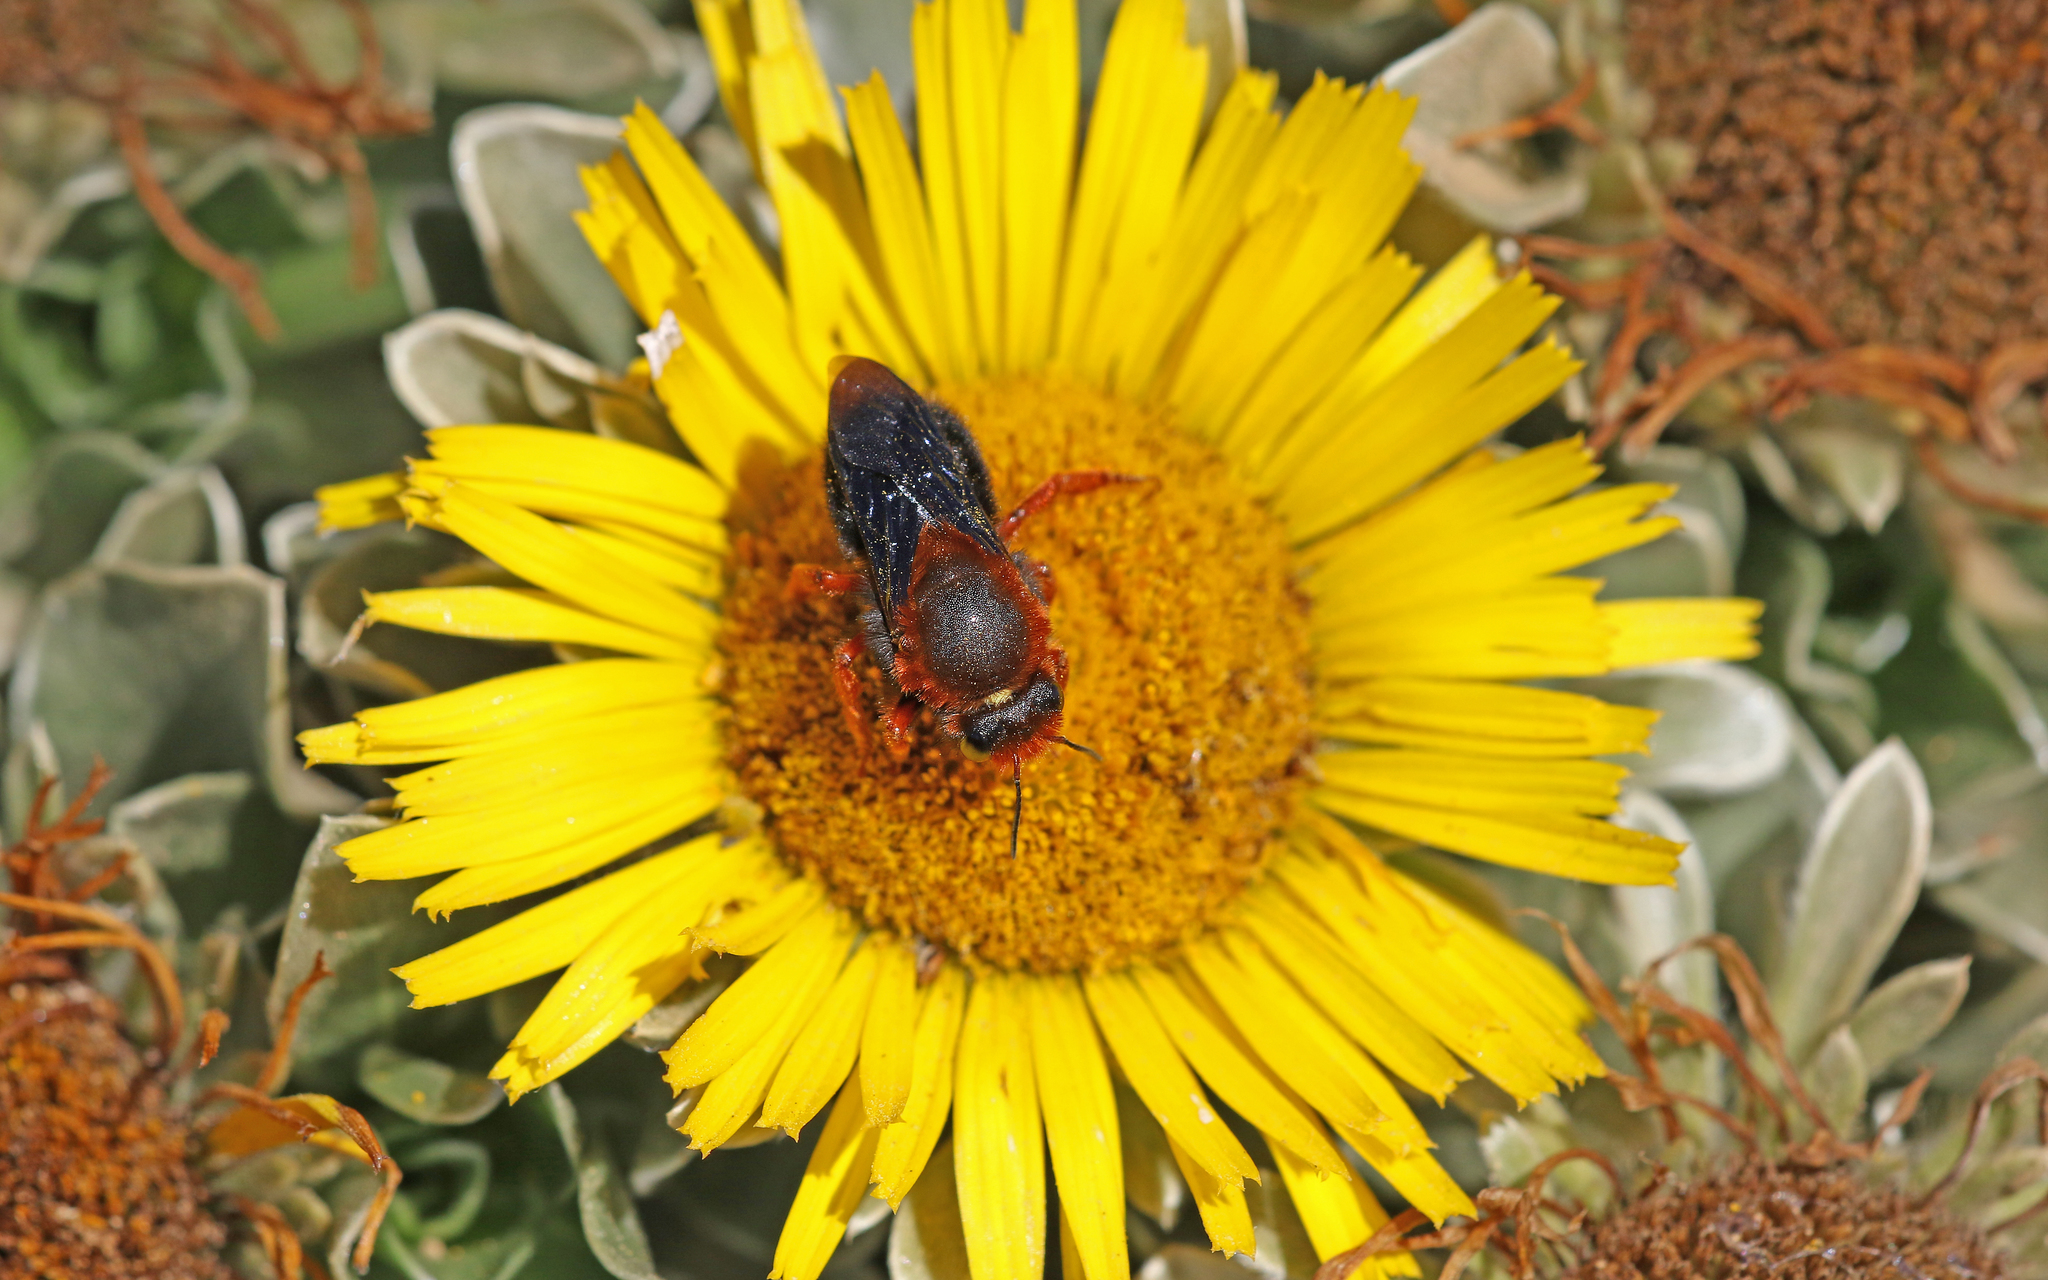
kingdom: Animalia
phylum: Arthropoda
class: Insecta
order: Hymenoptera
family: Megachilidae
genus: Megachile
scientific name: Megachile sicula
